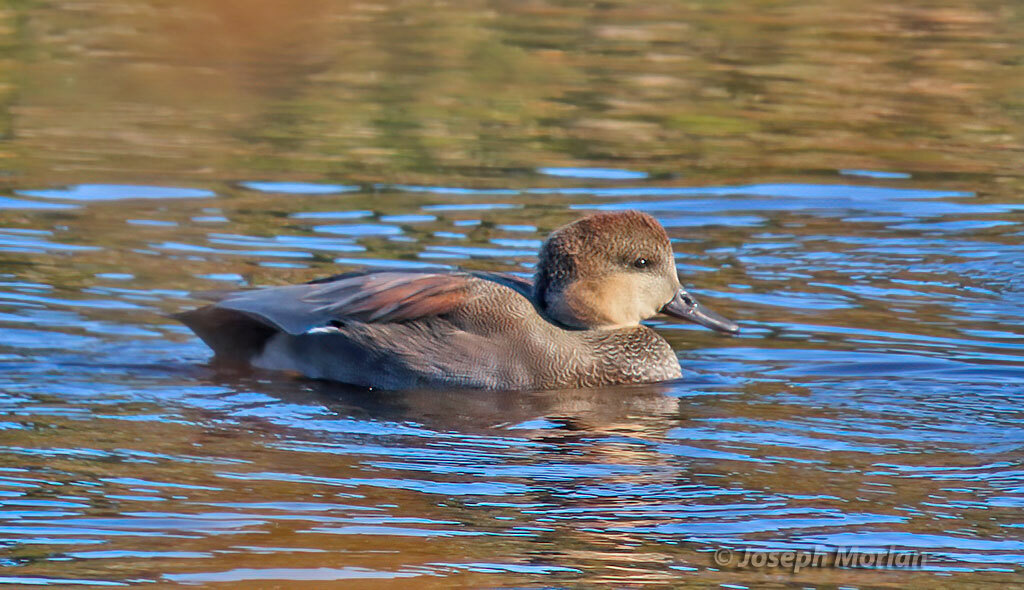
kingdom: Animalia
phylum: Chordata
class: Aves
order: Anseriformes
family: Anatidae
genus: Mareca
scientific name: Mareca strepera
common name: Gadwall
